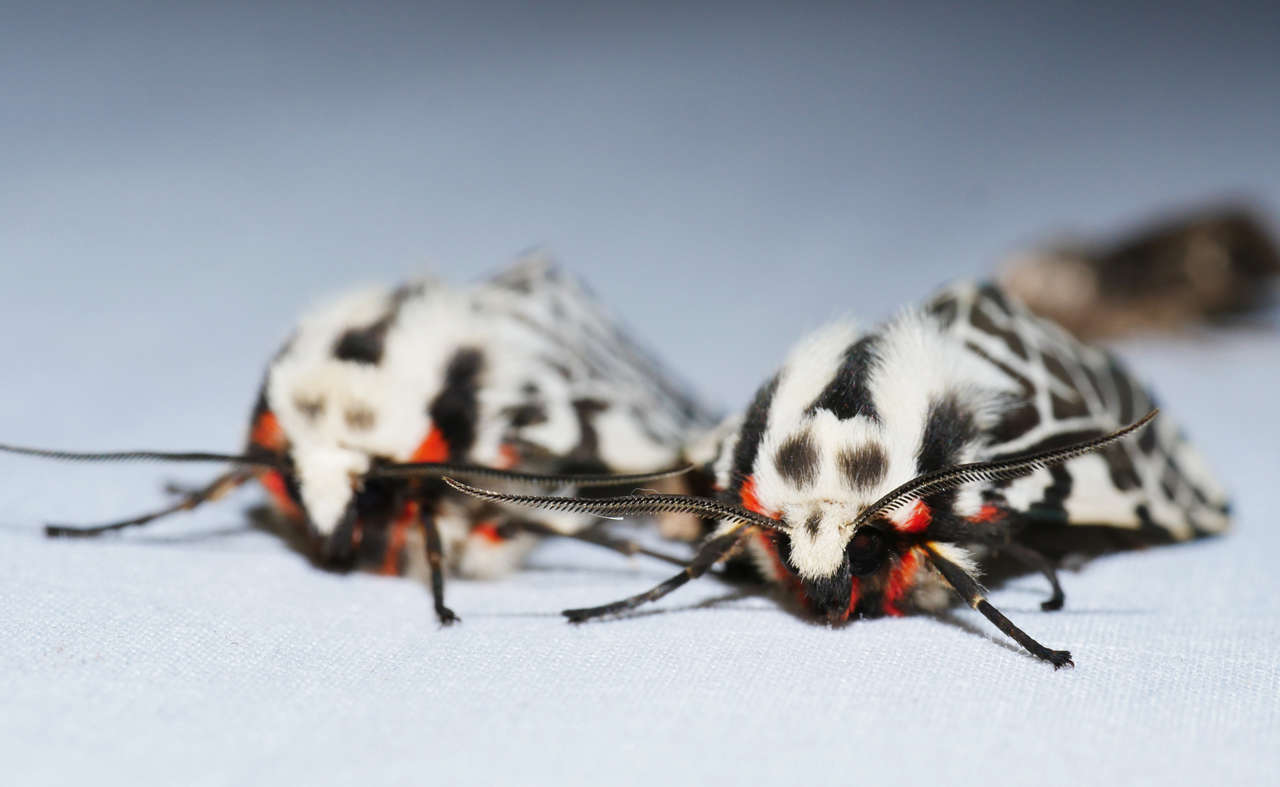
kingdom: Animalia
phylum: Arthropoda
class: Insecta
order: Lepidoptera
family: Erebidae
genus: Ardices
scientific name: Ardices glatignyi
